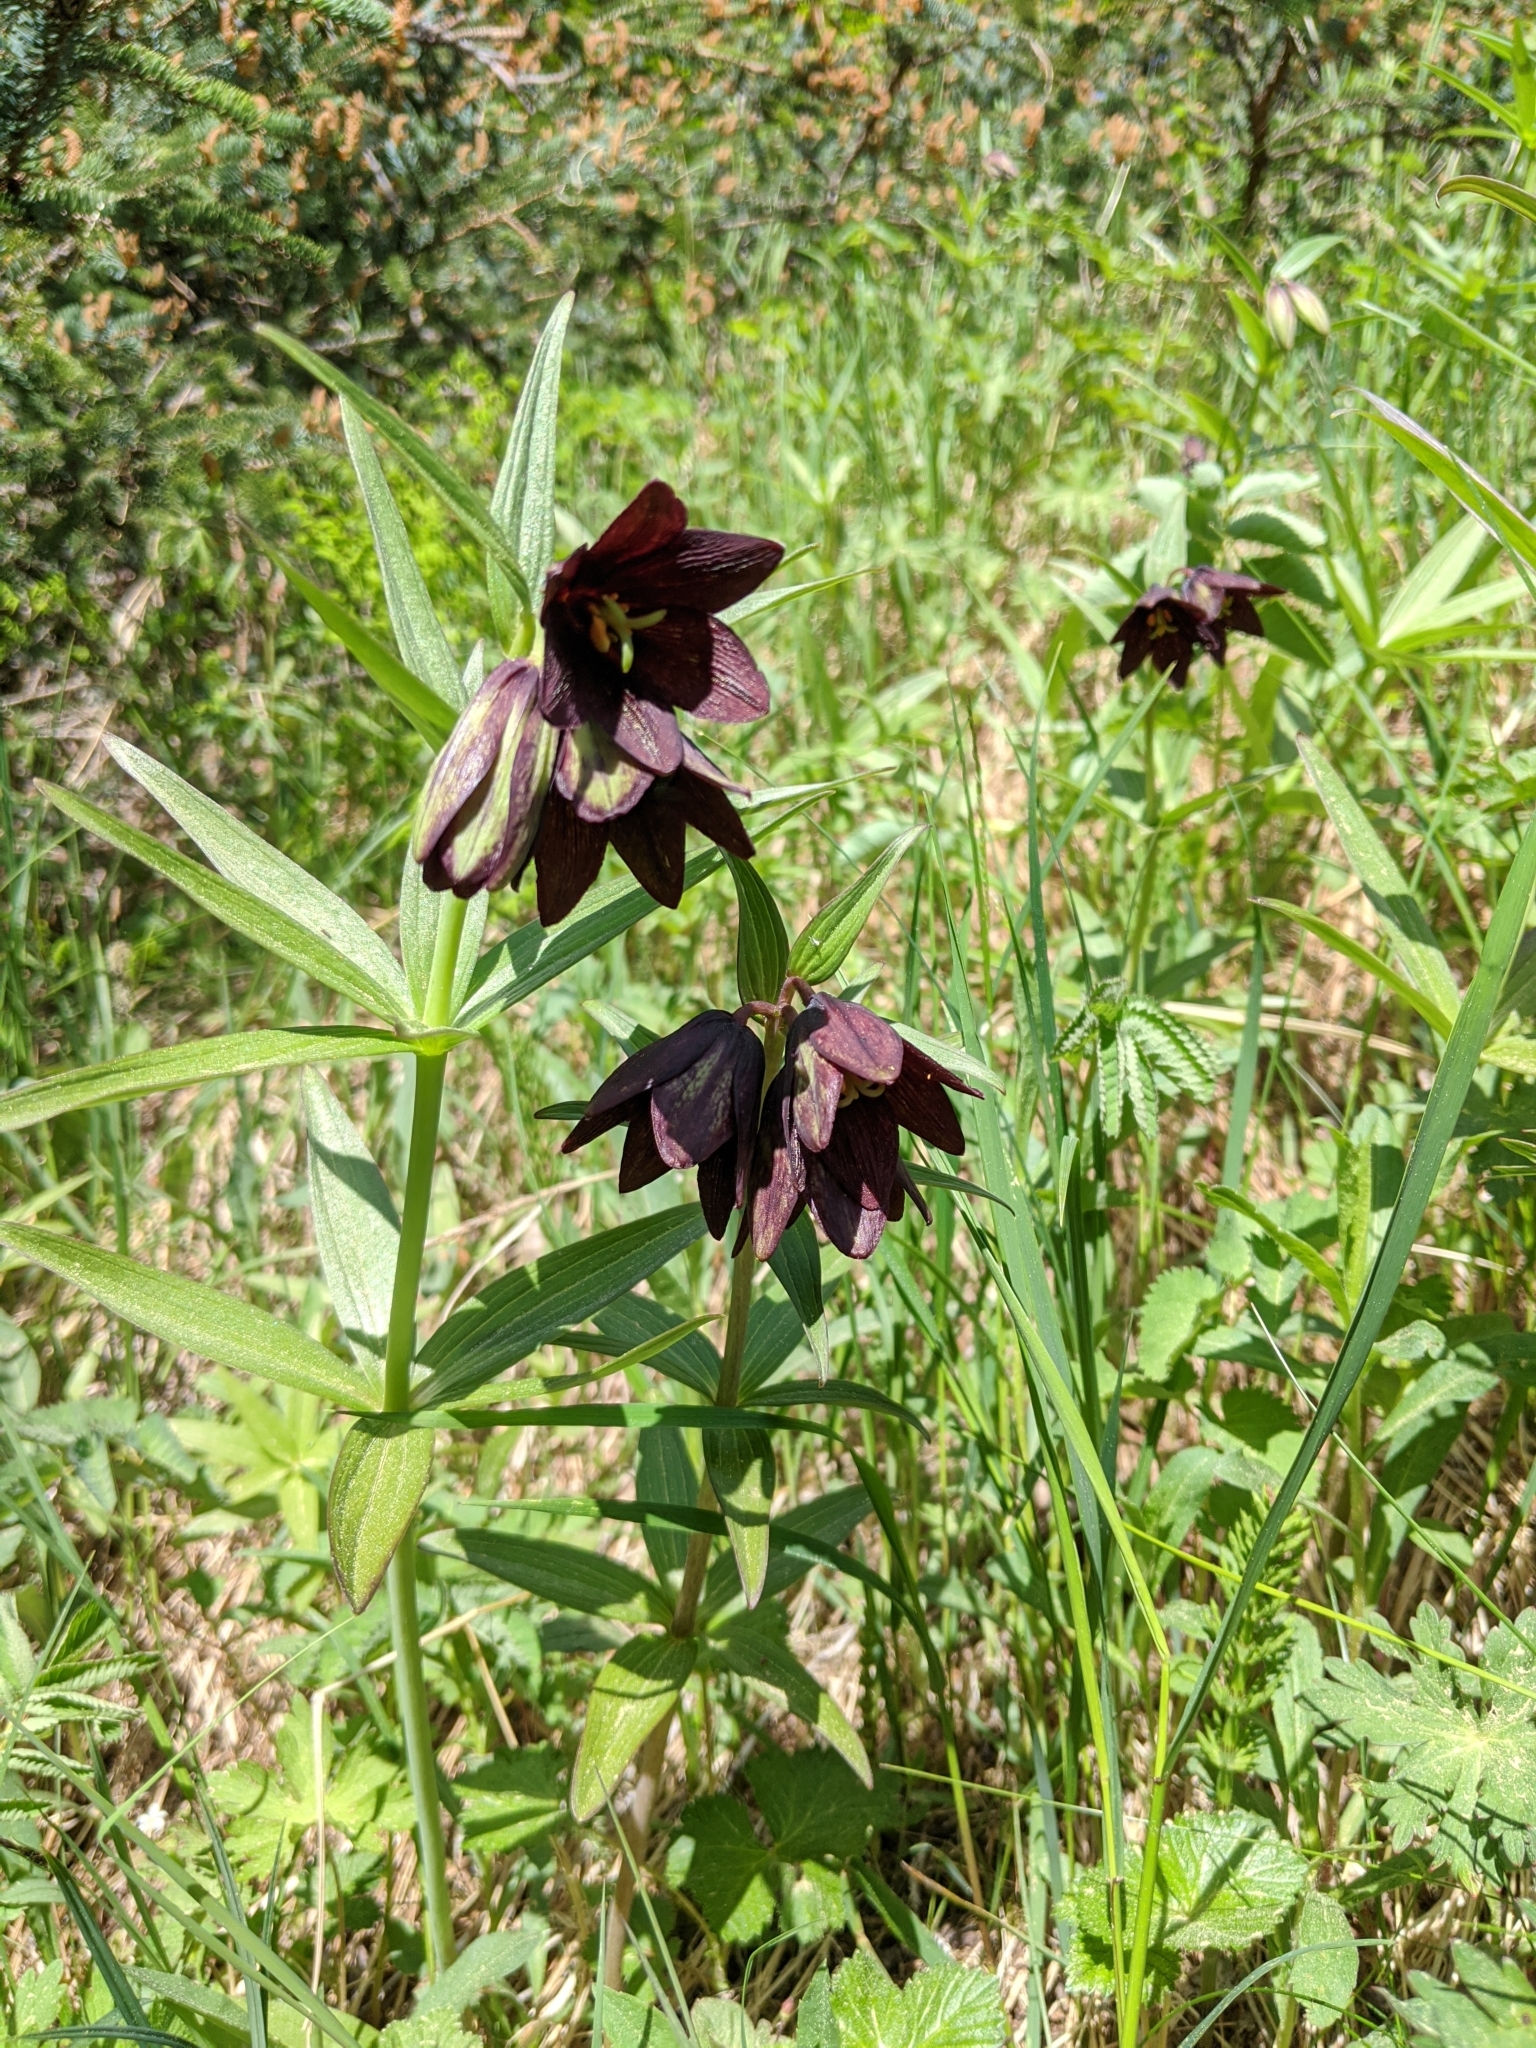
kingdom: Plantae
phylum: Tracheophyta
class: Liliopsida
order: Liliales
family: Liliaceae
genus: Fritillaria
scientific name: Fritillaria camschatcensis
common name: Kamchatka fritillary
